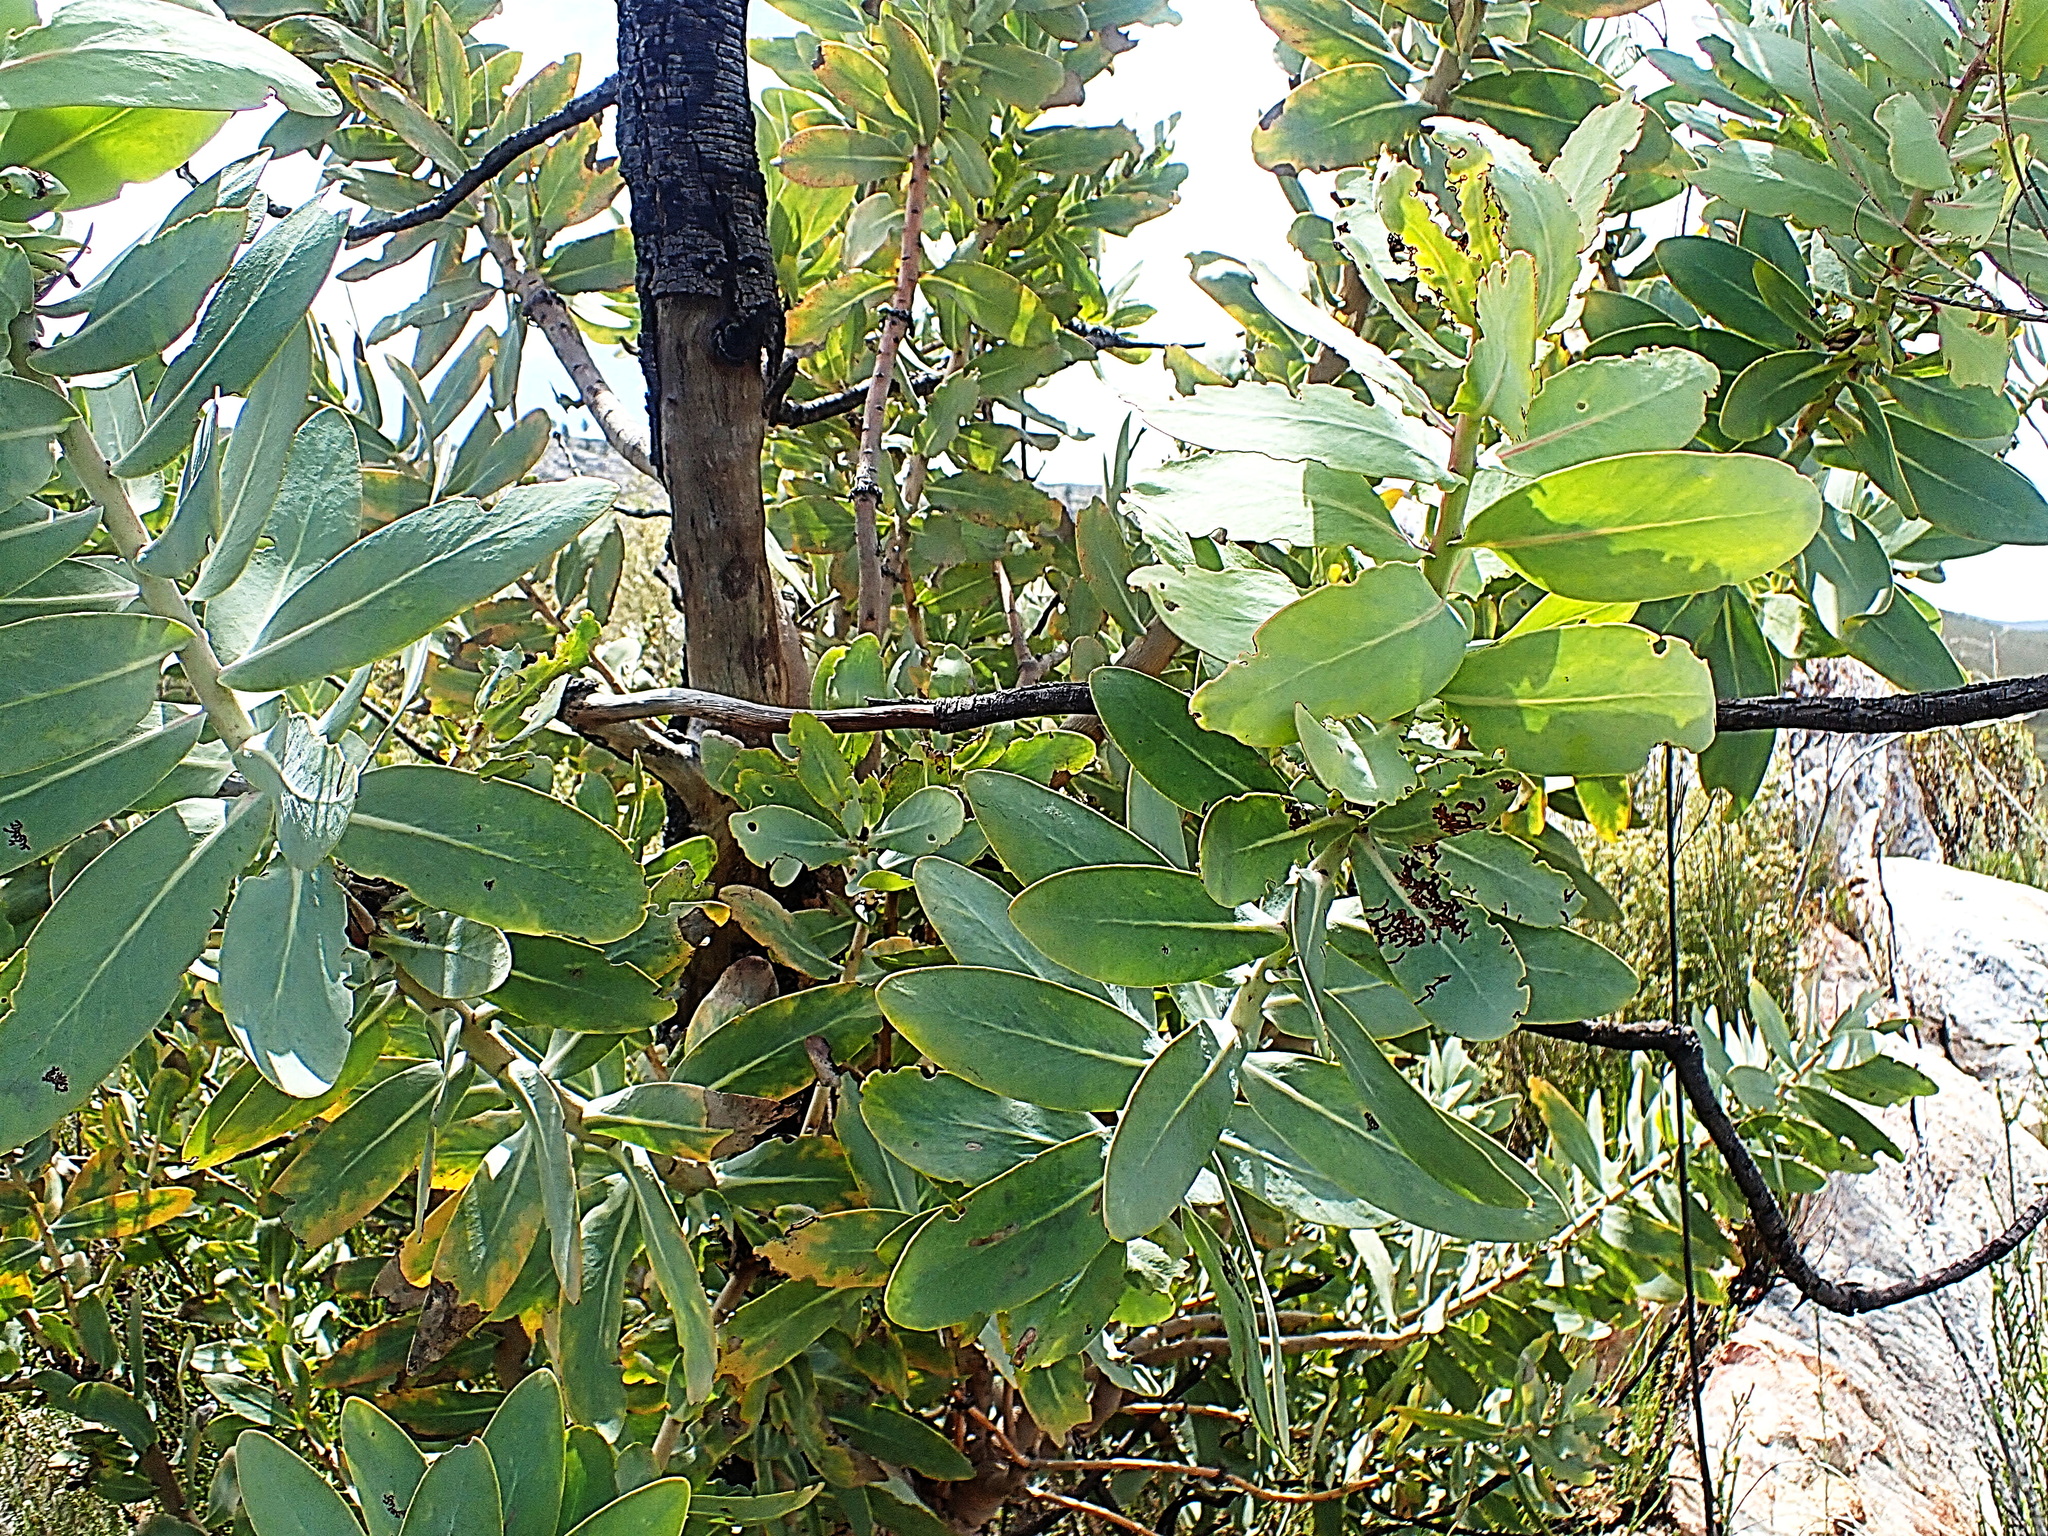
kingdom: Plantae
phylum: Tracheophyta
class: Magnoliopsida
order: Proteales
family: Proteaceae
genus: Protea
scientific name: Protea nitida
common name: Tree protea
